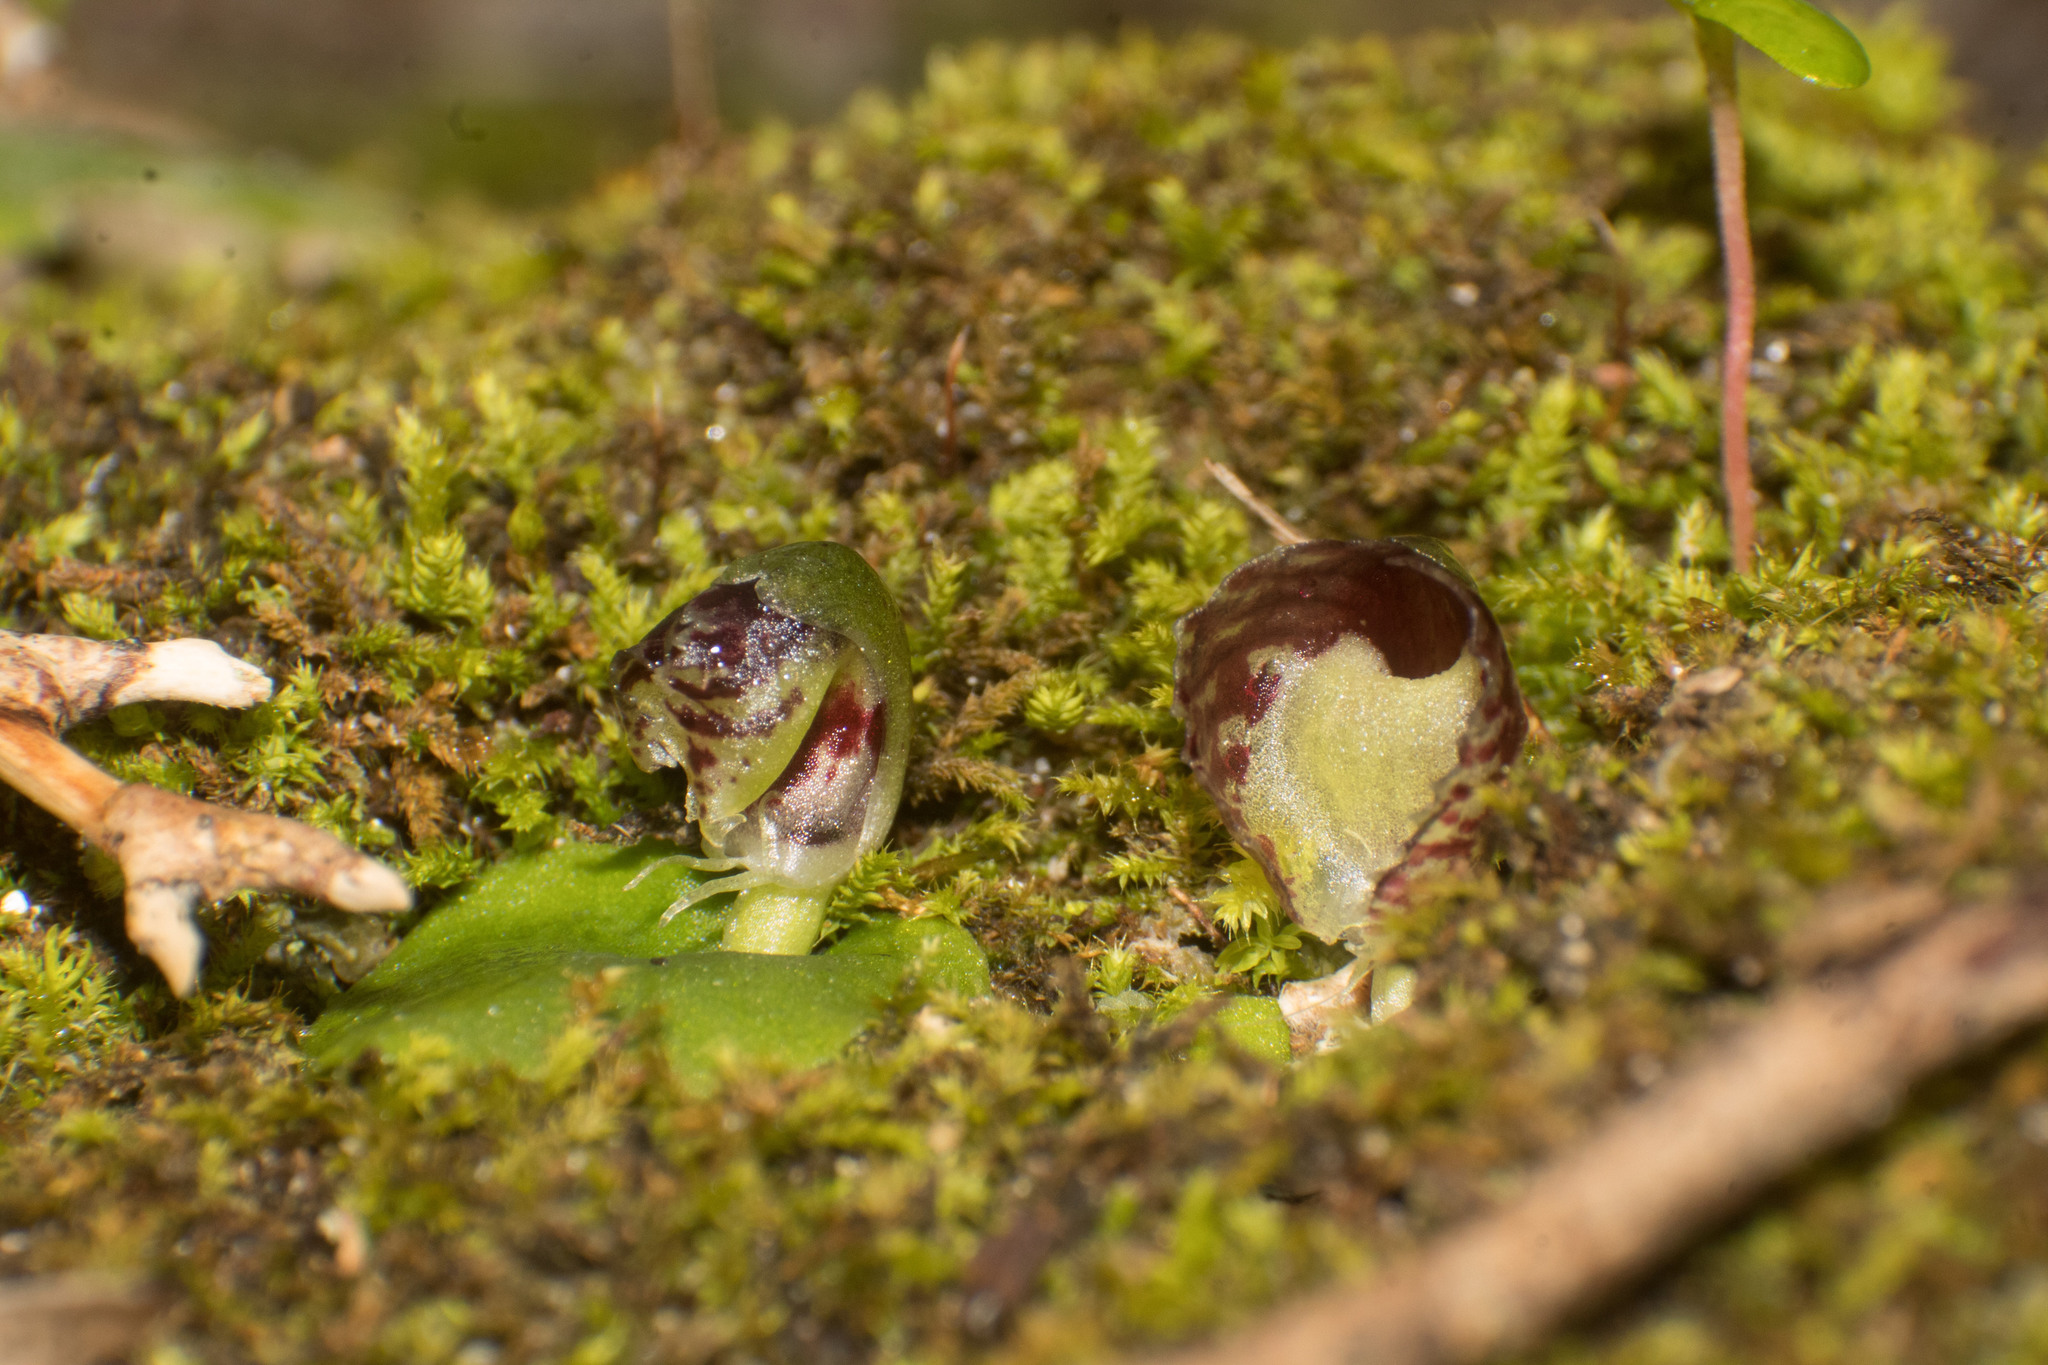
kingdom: Plantae
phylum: Tracheophyta
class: Liliopsida
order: Asparagales
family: Orchidaceae
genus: Corybas
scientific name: Corybas despectans
